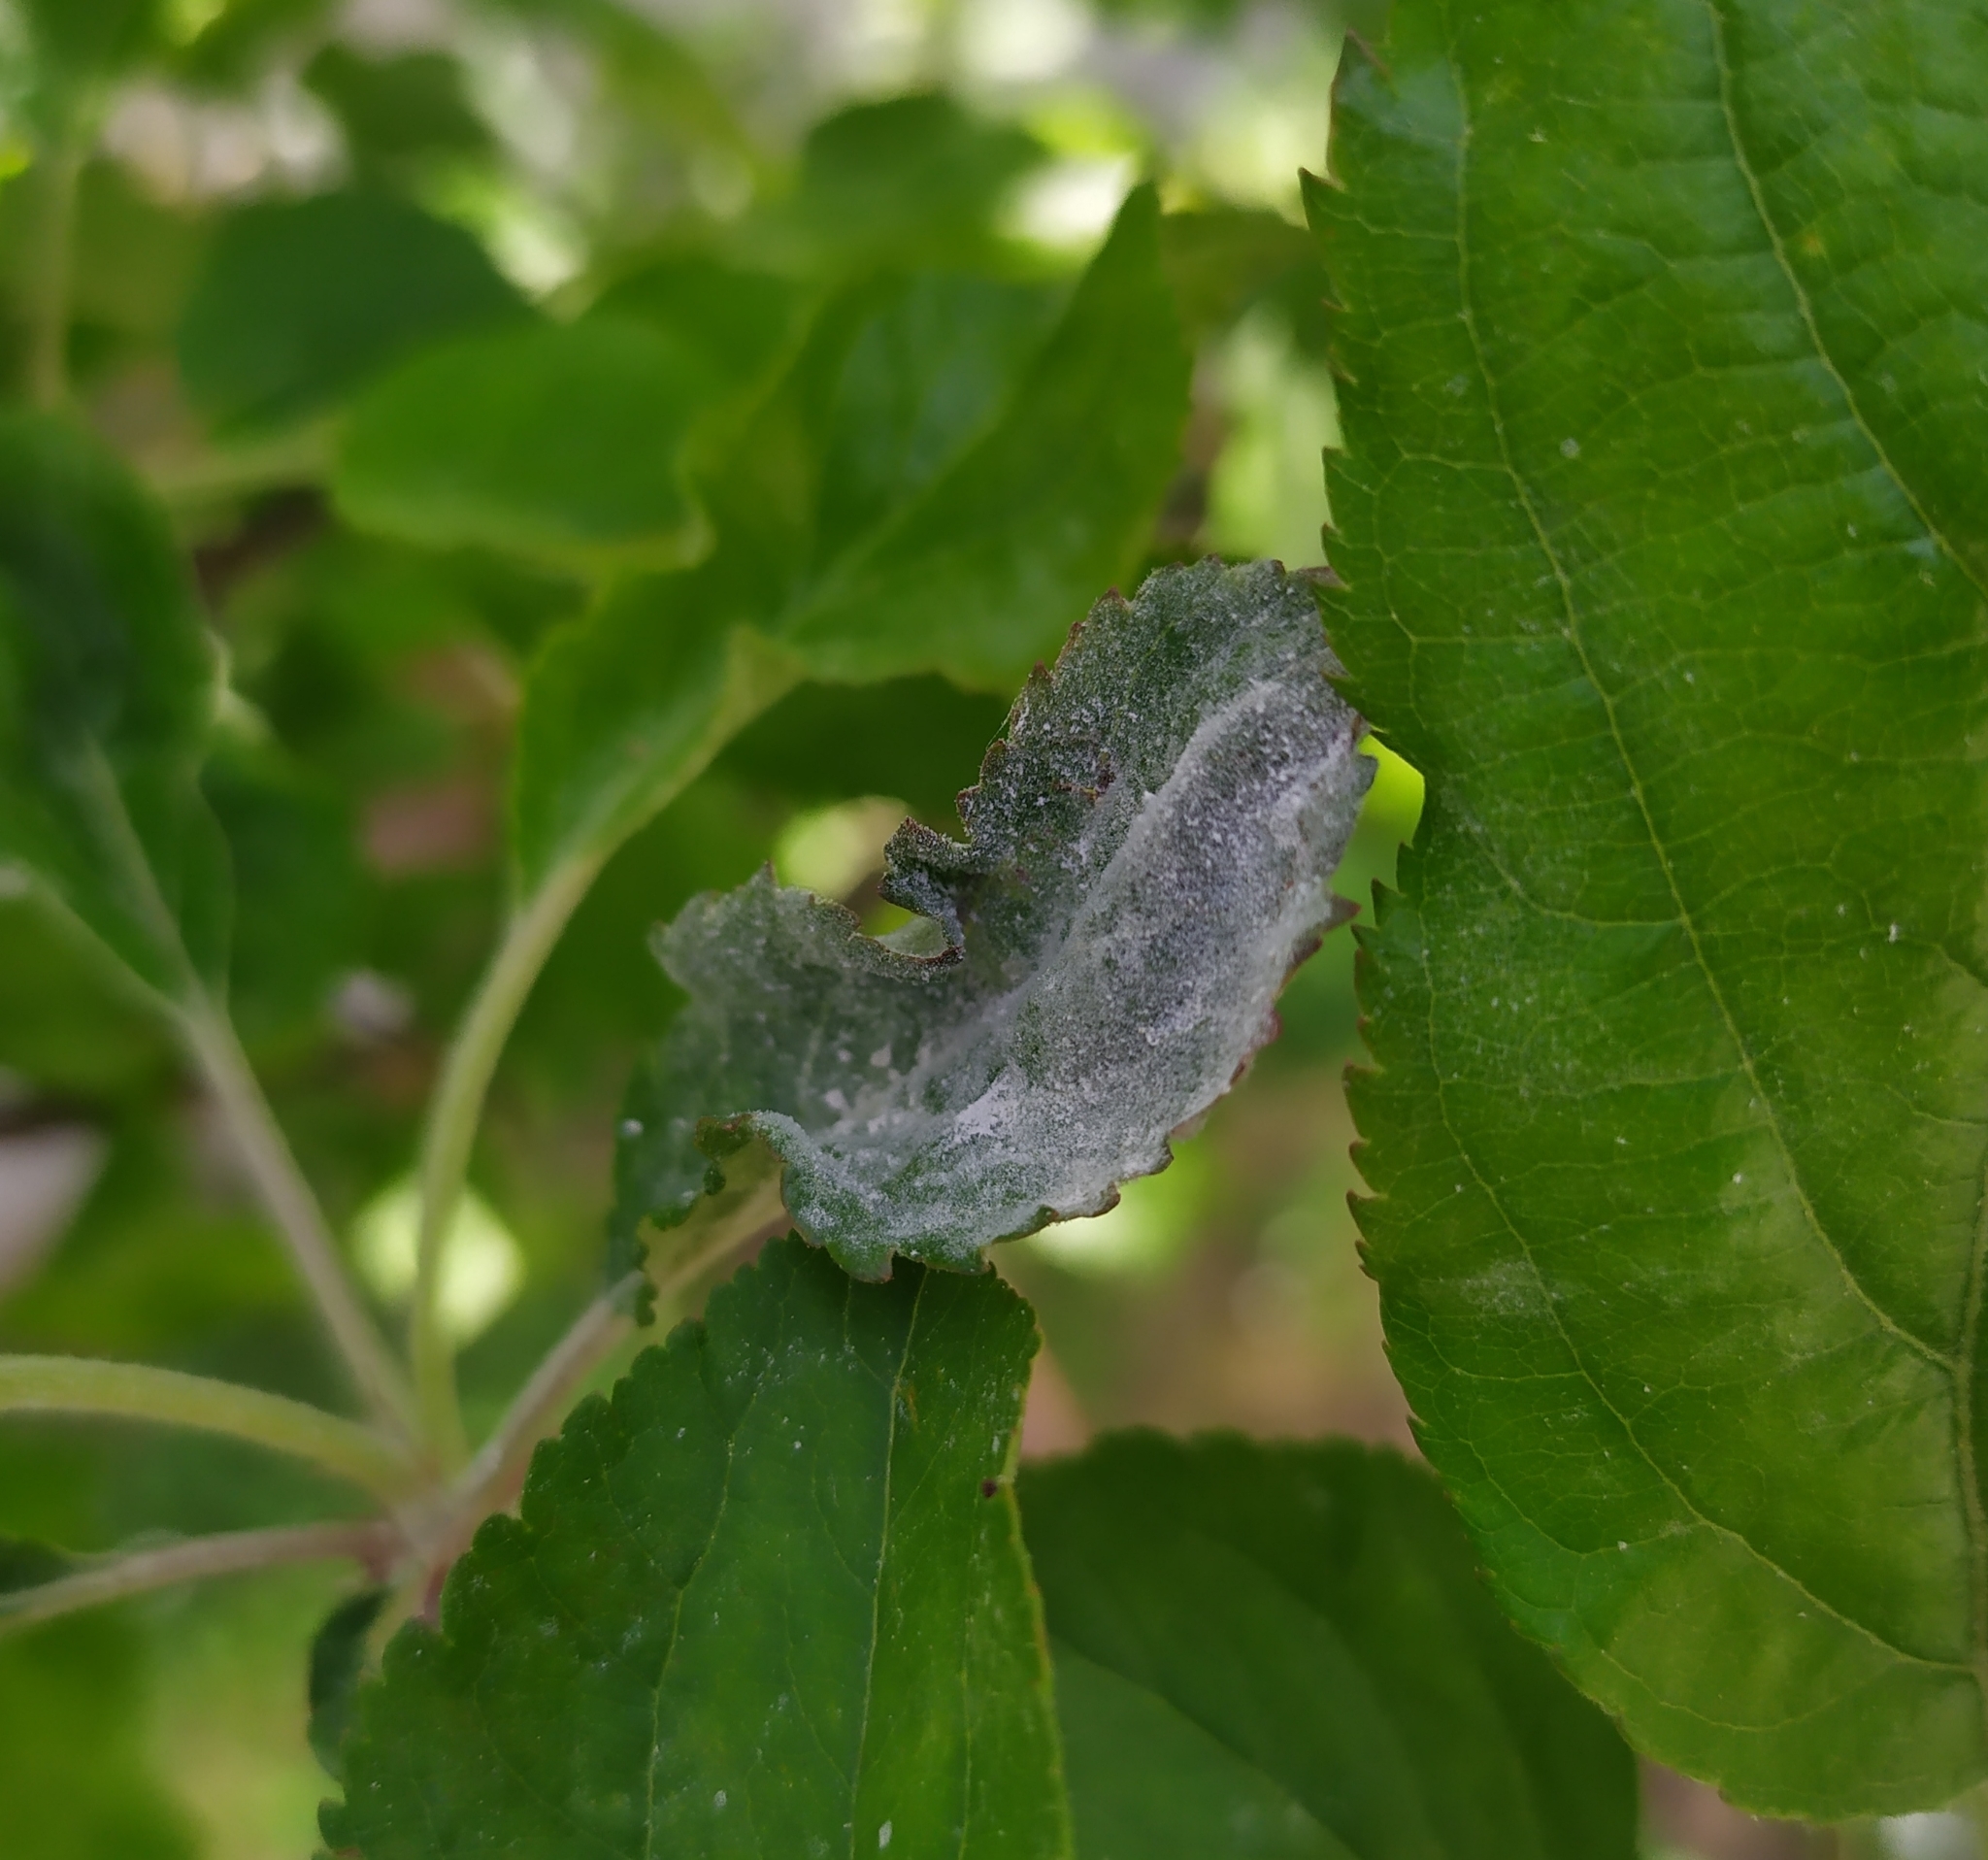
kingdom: Fungi
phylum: Ascomycota
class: Leotiomycetes
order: Helotiales
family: Erysiphaceae
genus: Podosphaera
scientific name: Podosphaera leucotricha
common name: Apple powdery mildew
